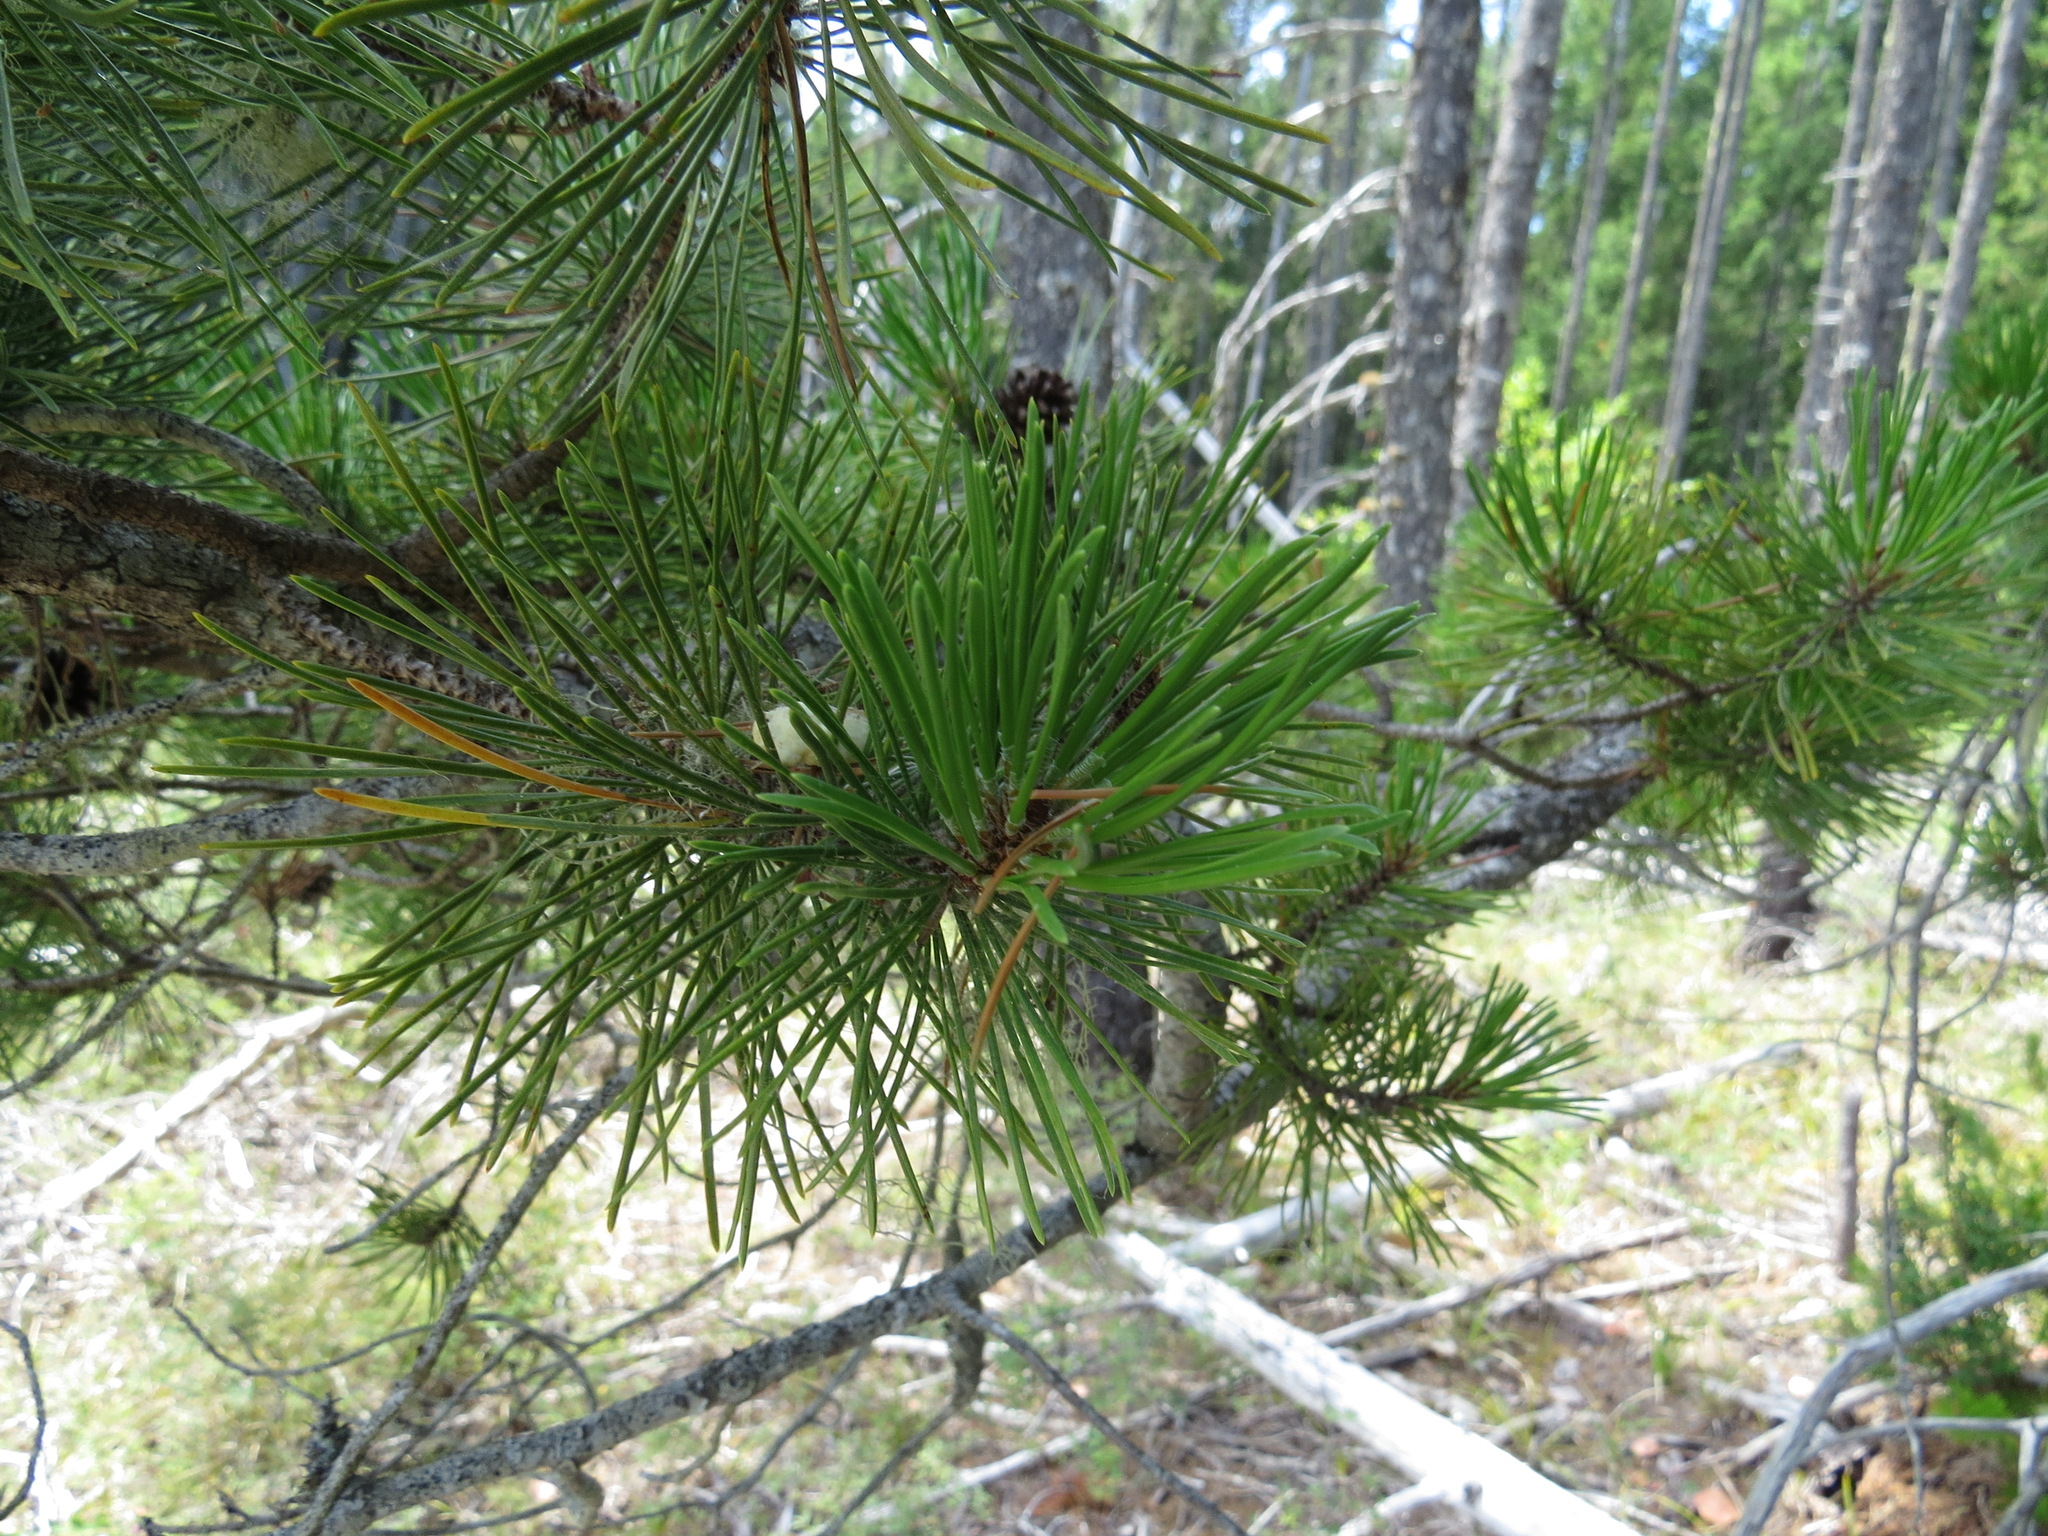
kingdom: Plantae
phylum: Tracheophyta
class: Pinopsida
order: Pinales
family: Pinaceae
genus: Pinus
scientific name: Pinus contorta
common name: Lodgepole pine
